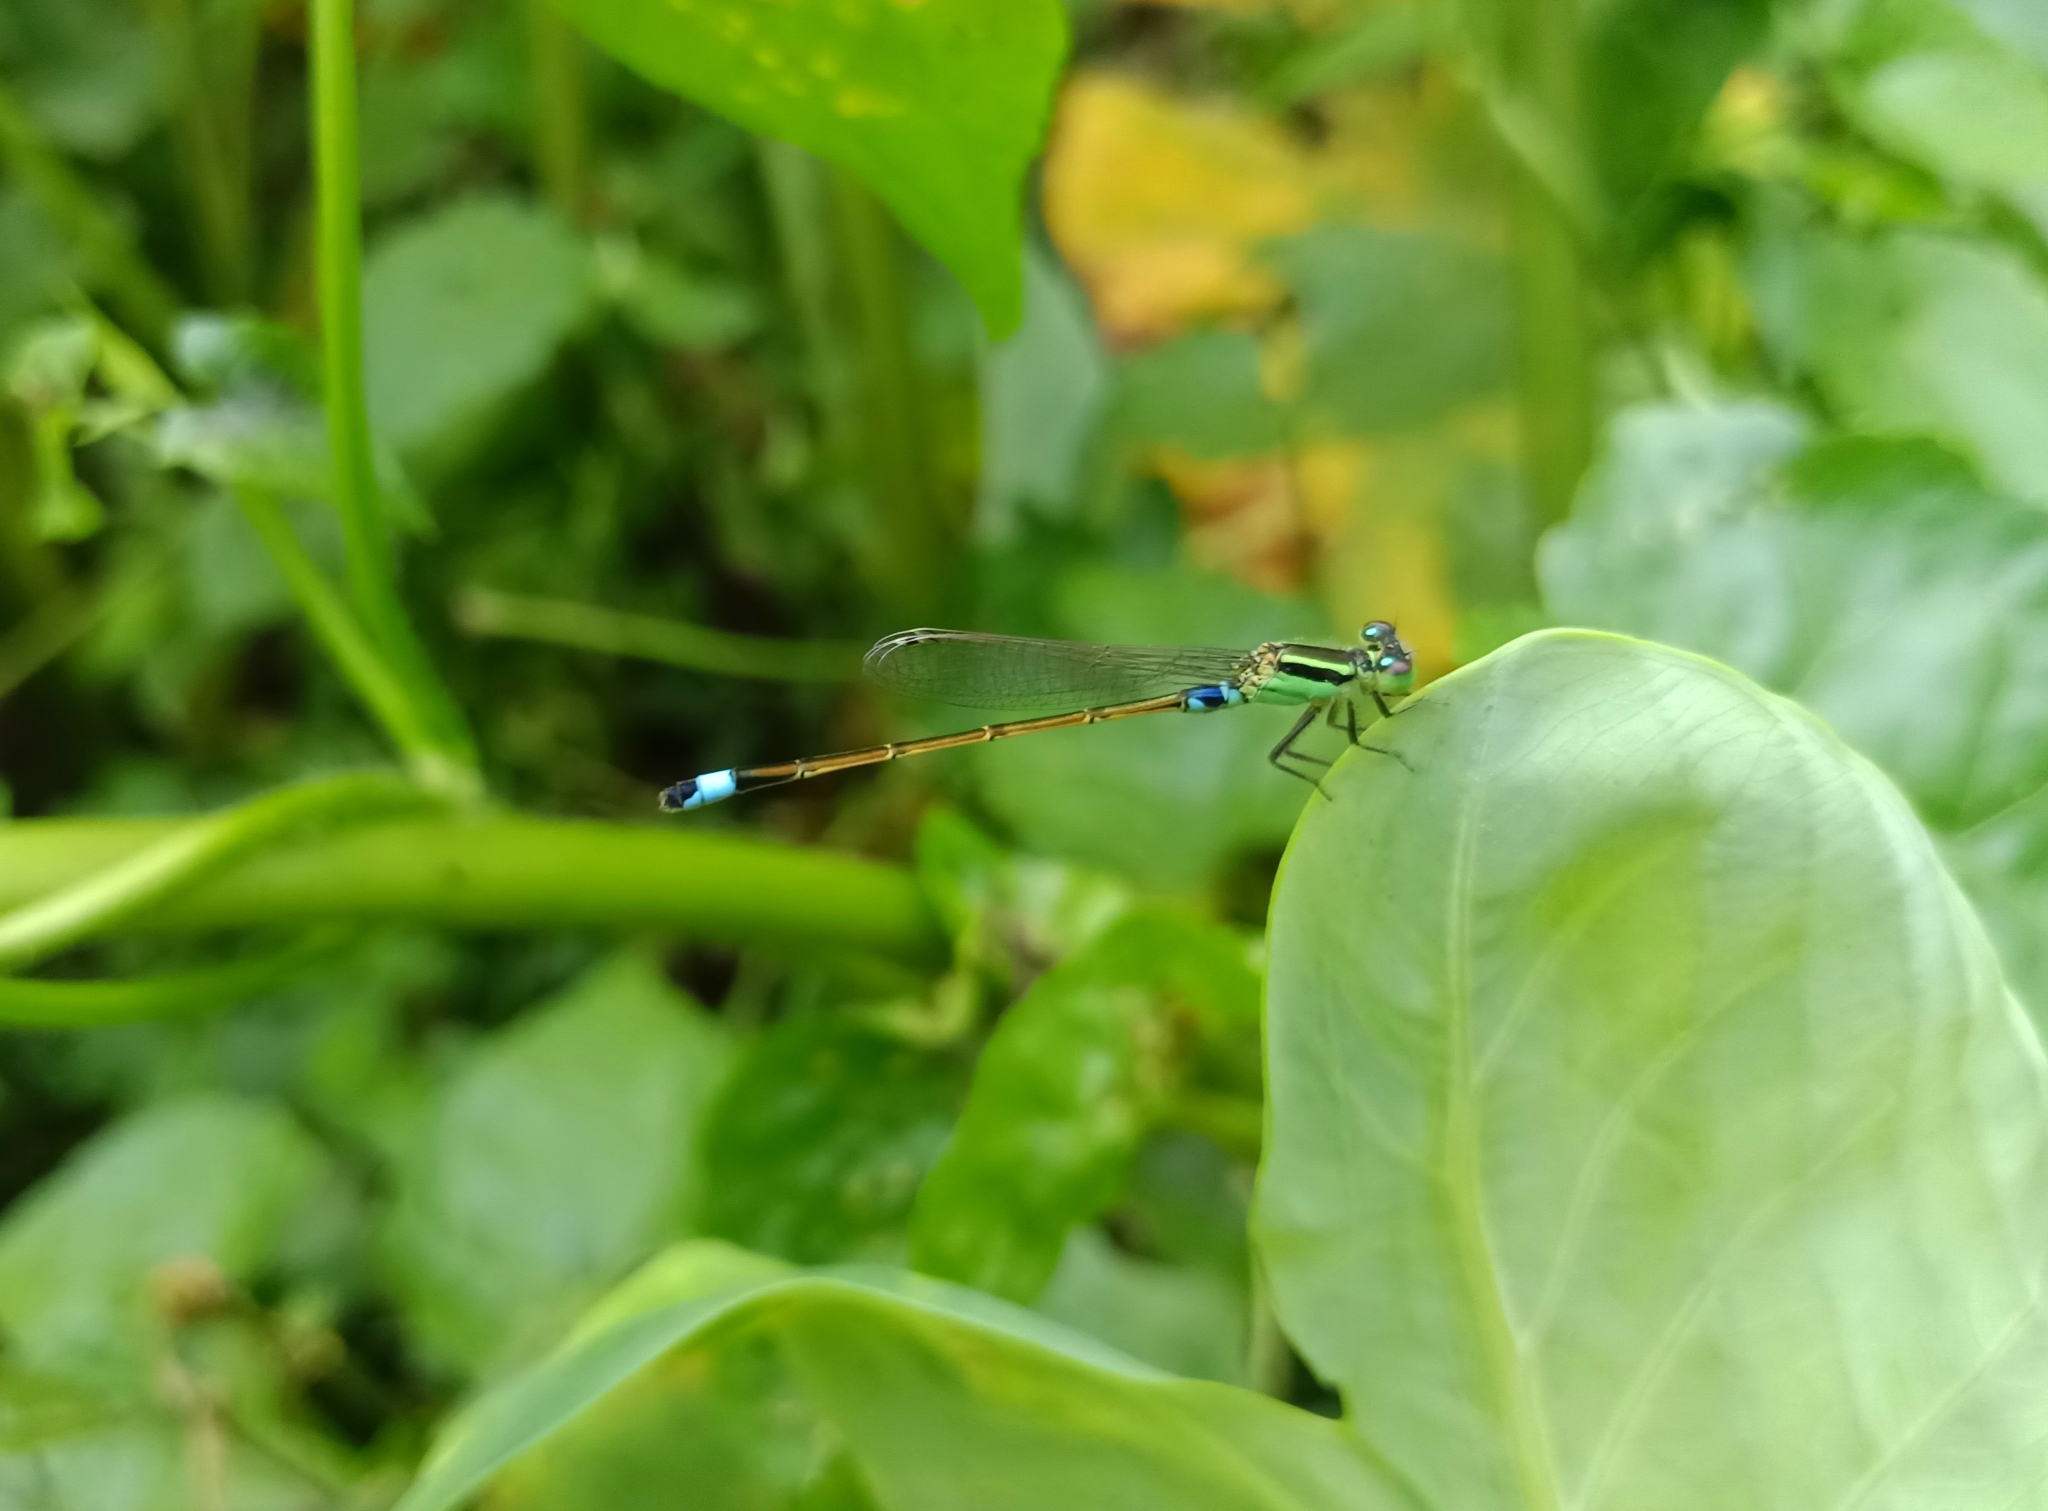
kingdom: Animalia
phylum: Arthropoda
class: Insecta
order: Odonata
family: Coenagrionidae
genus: Ischnura
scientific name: Ischnura senegalensis
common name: Tropical bluetail
